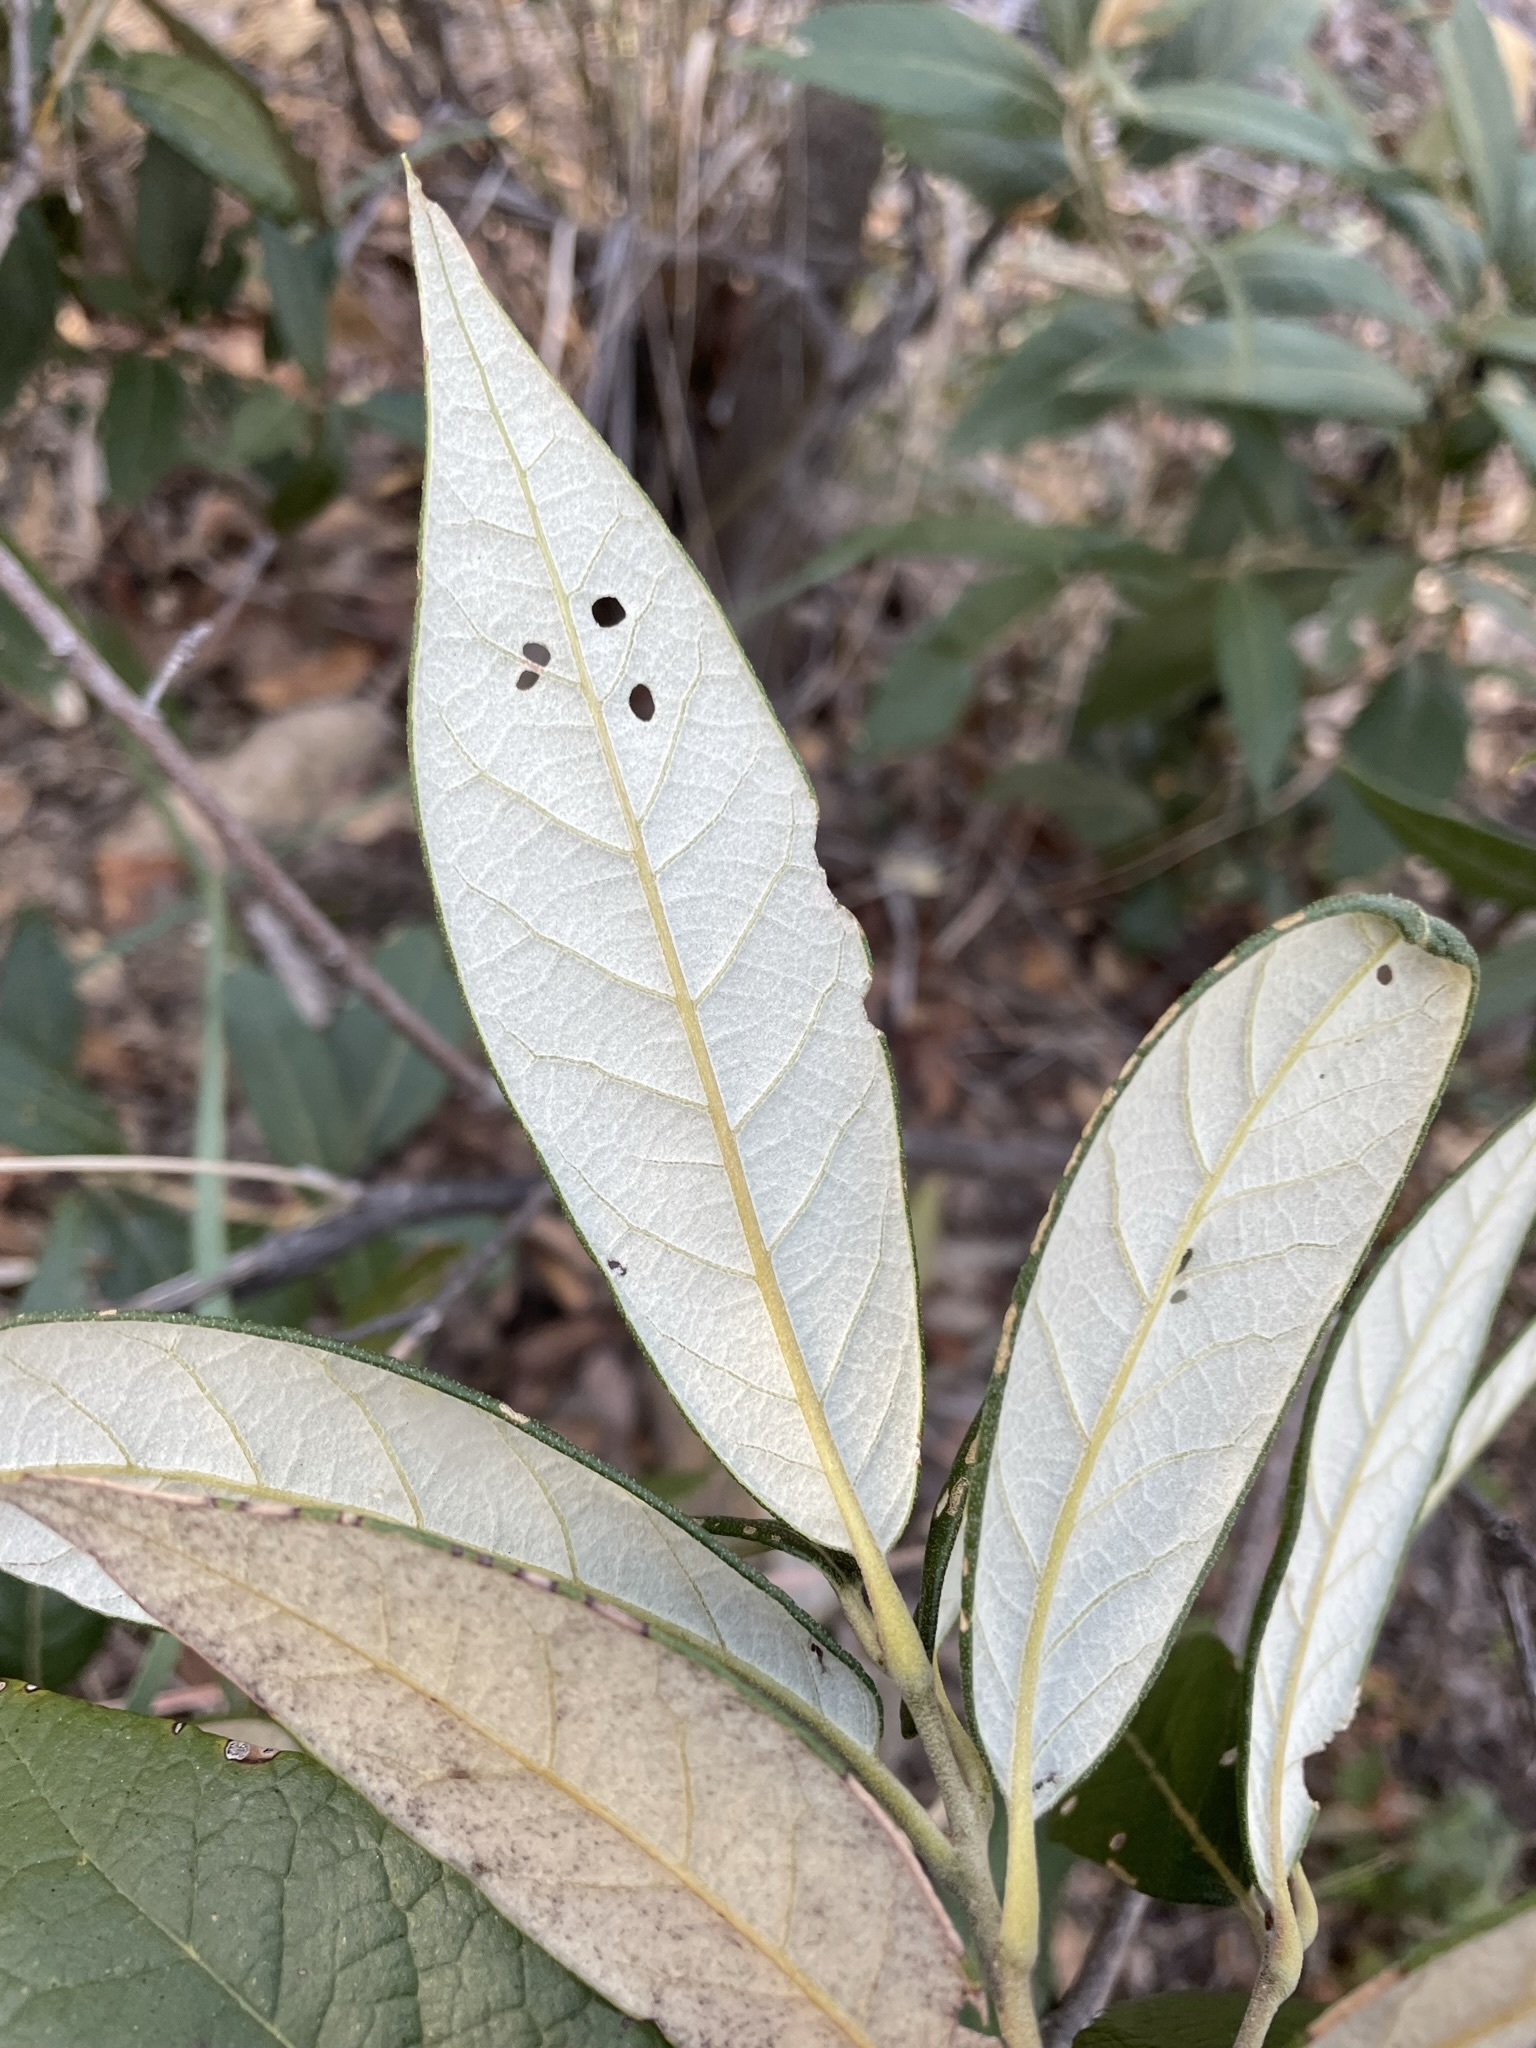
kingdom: Plantae
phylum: Tracheophyta
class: Magnoliopsida
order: Fagales
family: Fagaceae
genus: Quercus
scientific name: Quercus hypoleucoides
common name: Silverleaf oak
